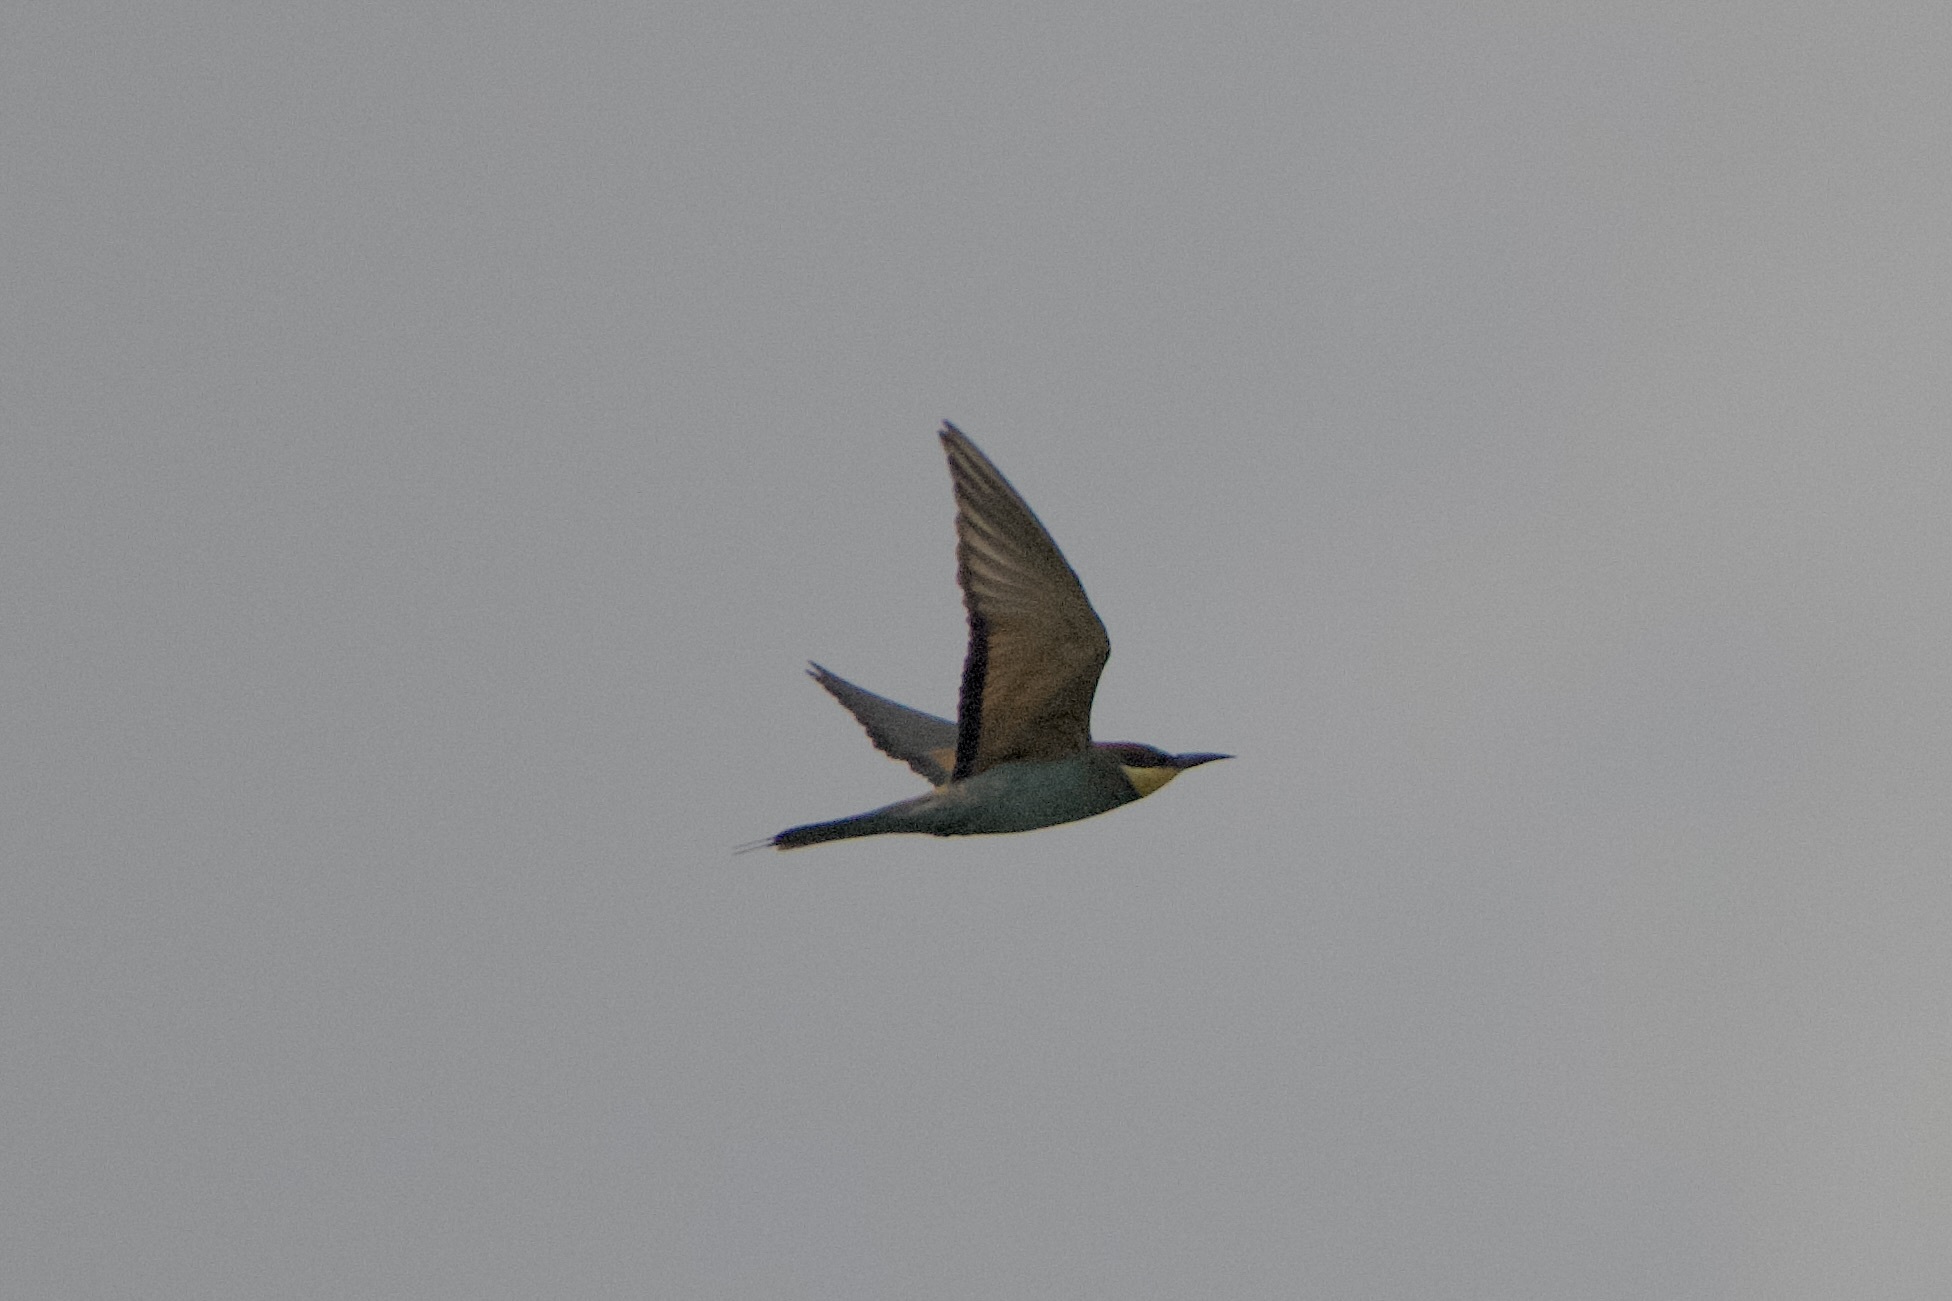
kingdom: Animalia
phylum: Chordata
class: Aves
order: Coraciiformes
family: Meropidae
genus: Merops
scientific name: Merops apiaster
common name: European bee-eater
